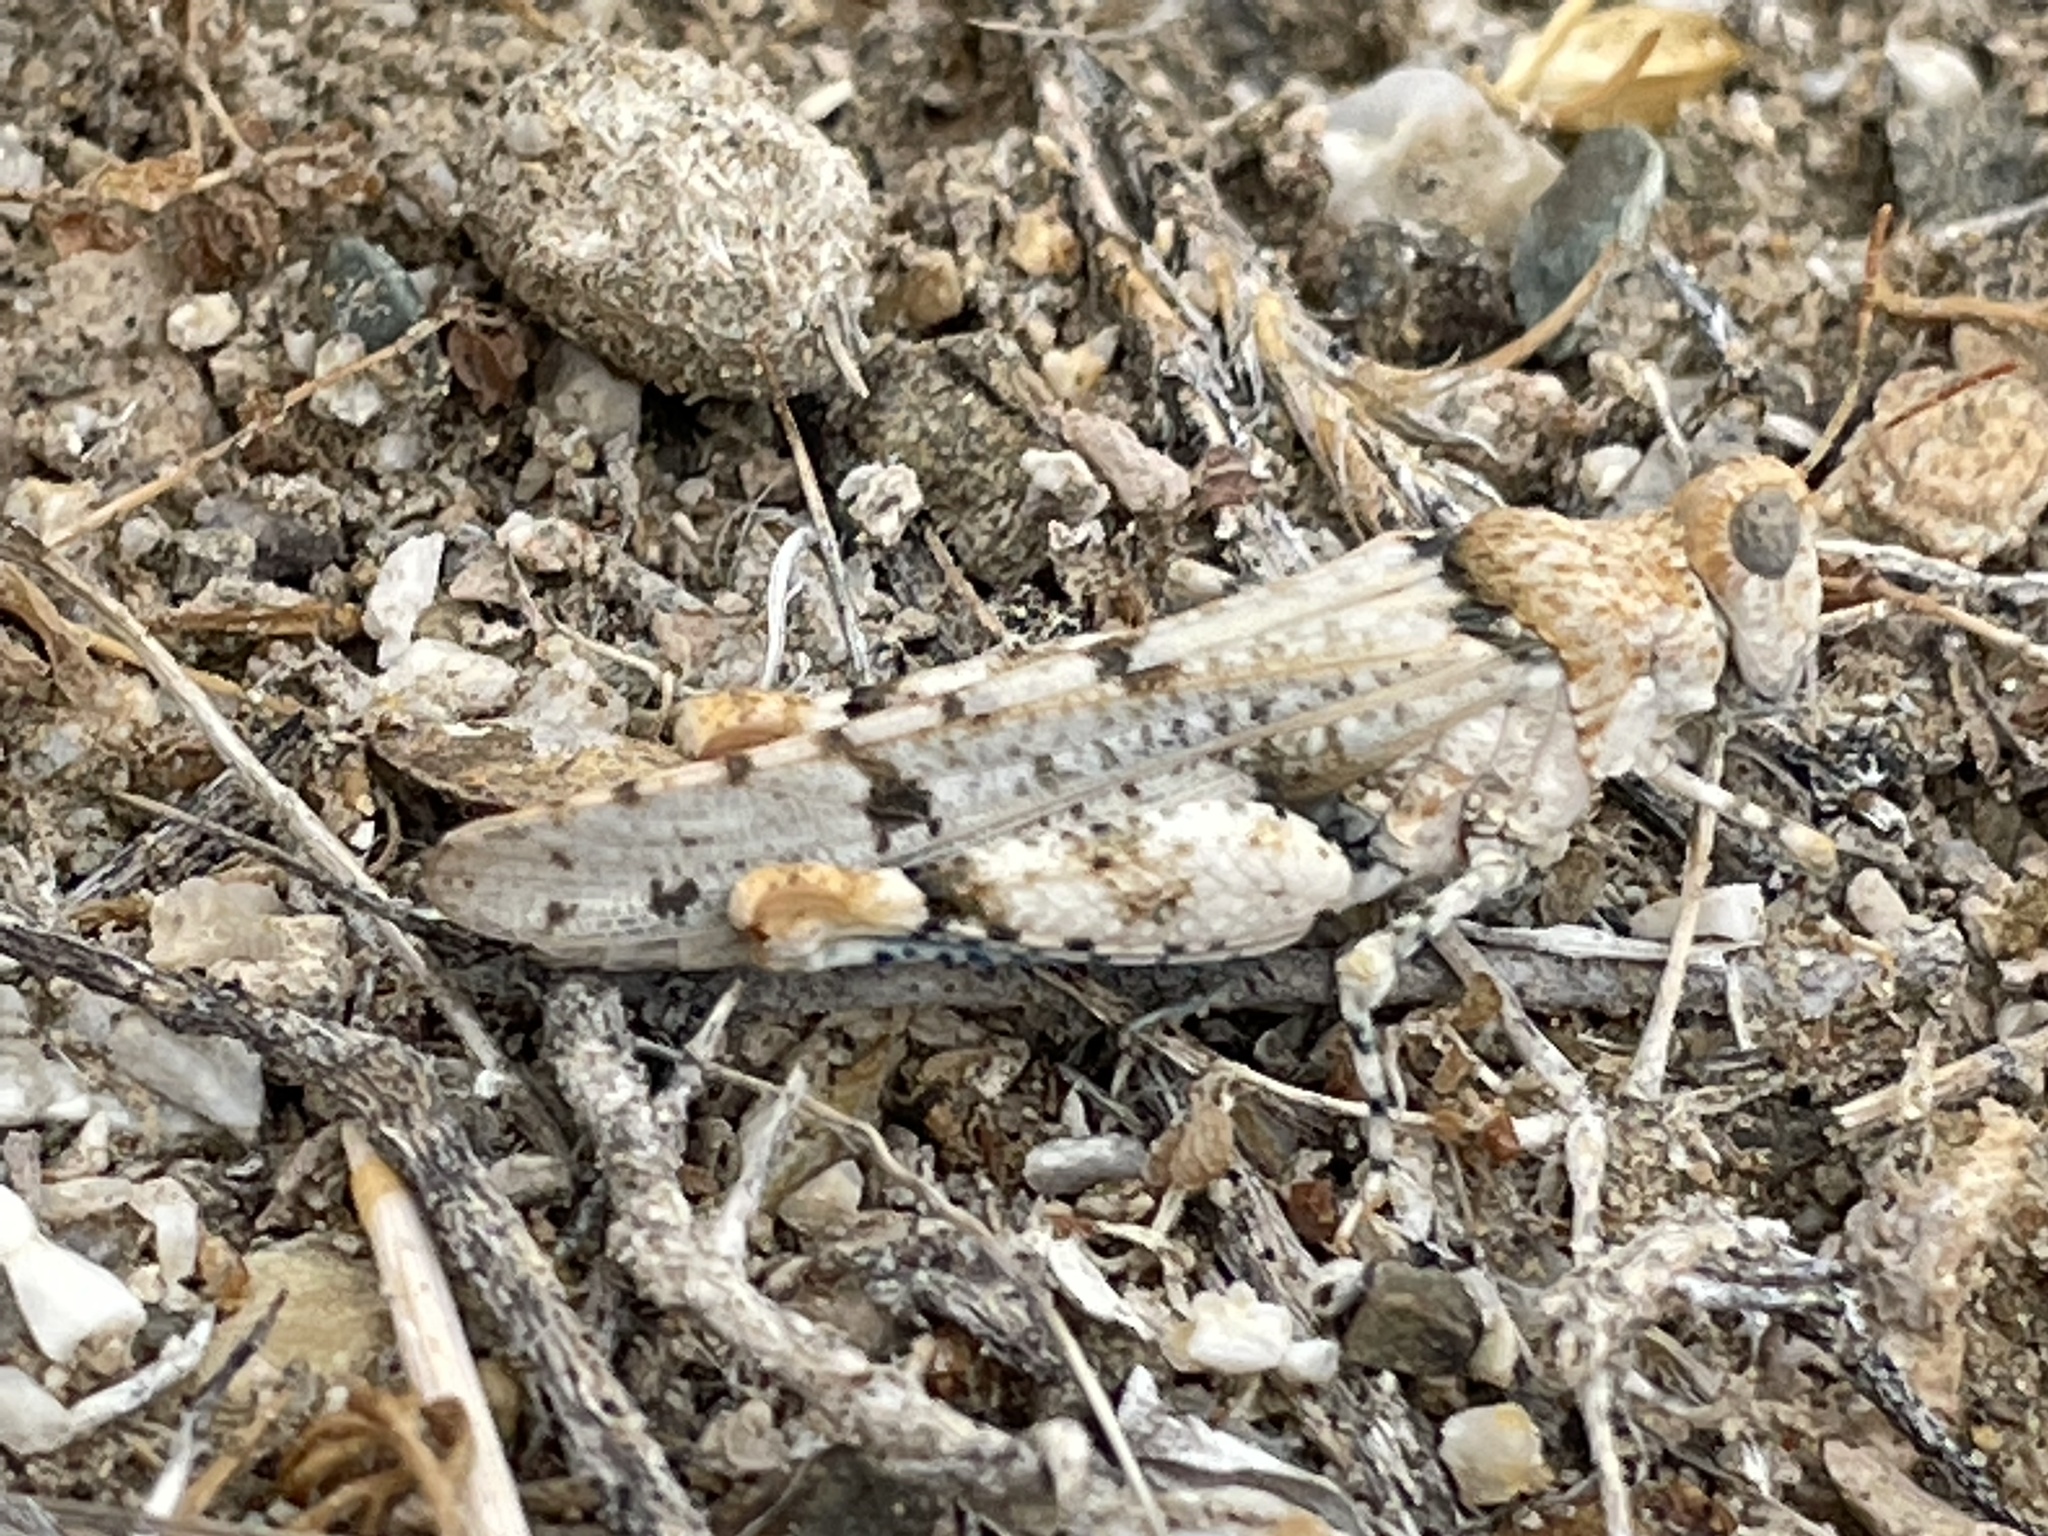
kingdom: Animalia
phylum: Arthropoda
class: Insecta
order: Orthoptera
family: Acrididae
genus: Cibolacris
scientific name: Cibolacris parviceps
